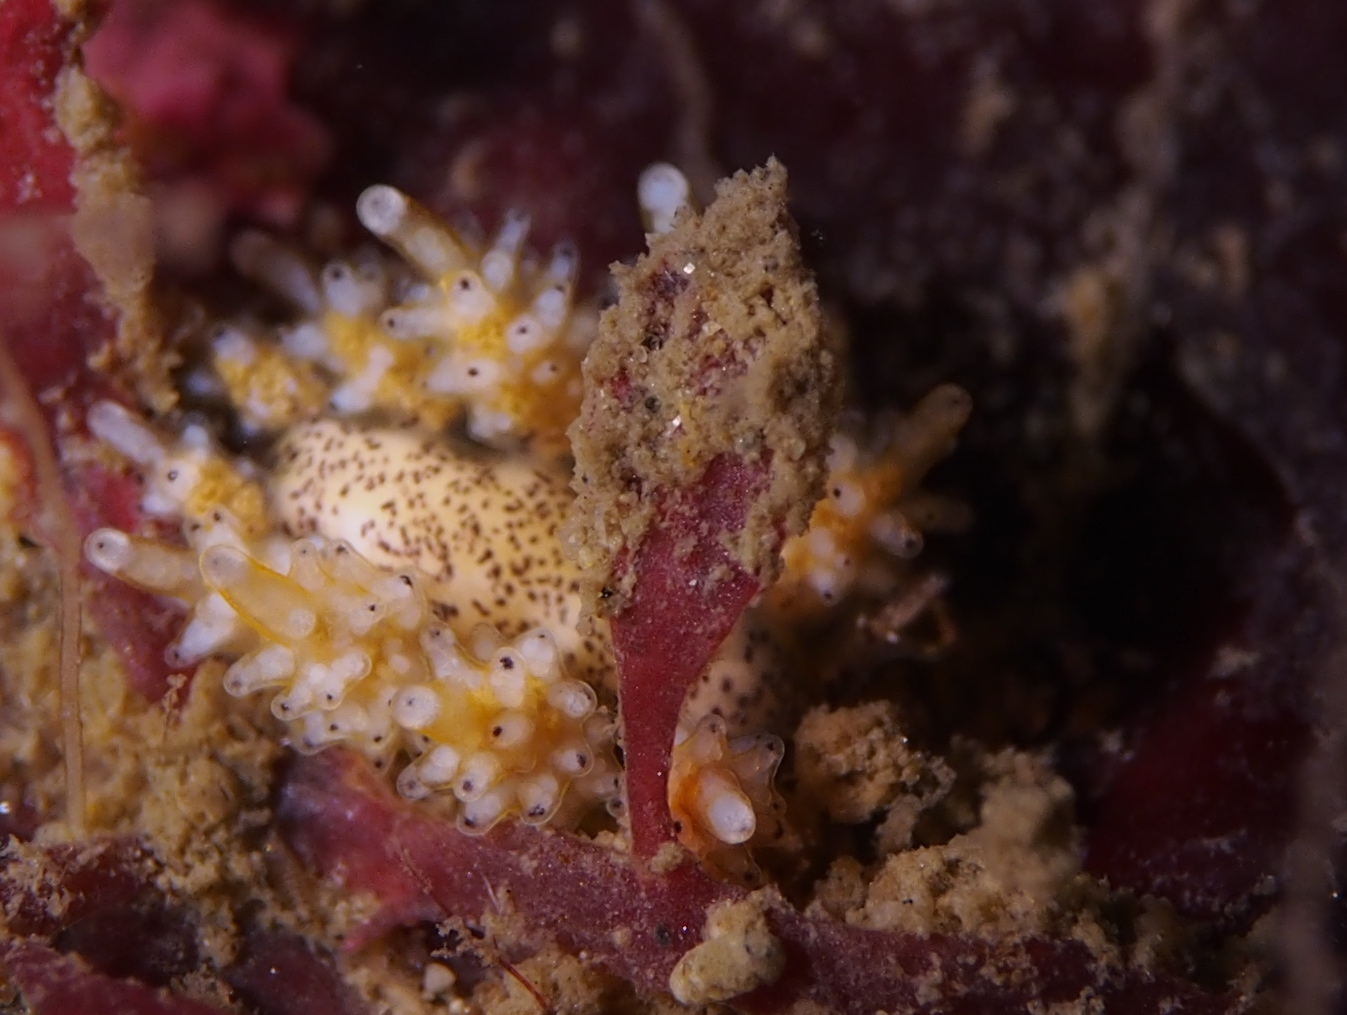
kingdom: Animalia
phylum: Mollusca
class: Gastropoda
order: Nudibranchia
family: Dotidae
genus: Doto
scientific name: Doto maculata
